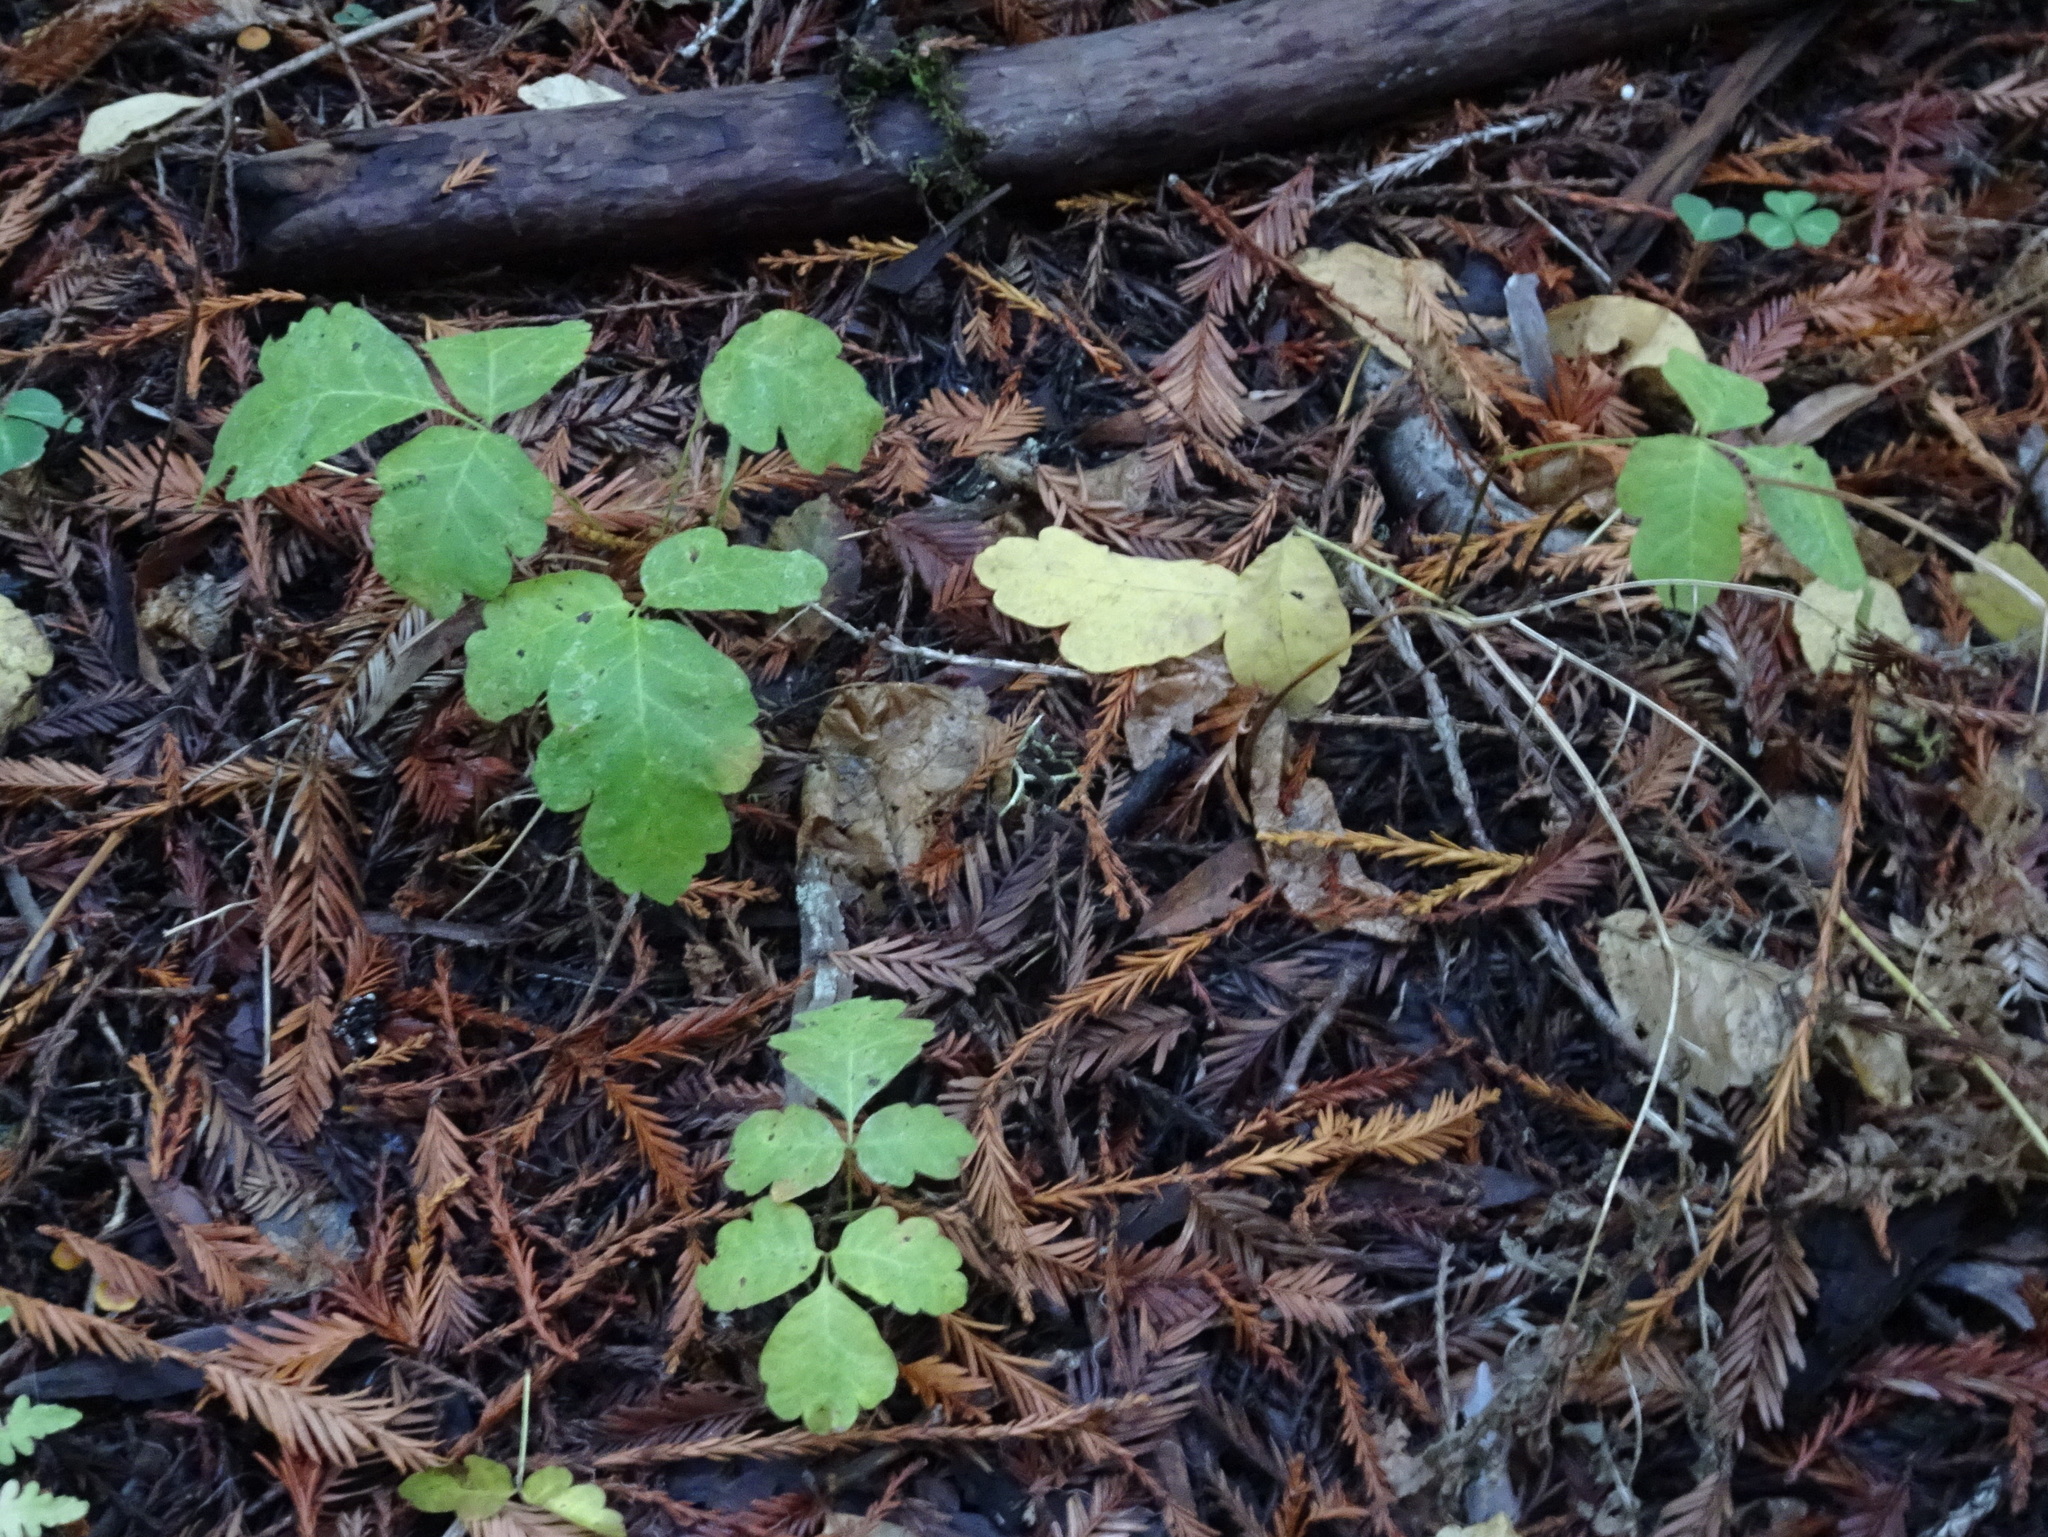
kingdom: Plantae
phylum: Tracheophyta
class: Magnoliopsida
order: Sapindales
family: Anacardiaceae
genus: Toxicodendron
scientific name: Toxicodendron diversilobum
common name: Pacific poison-oak
